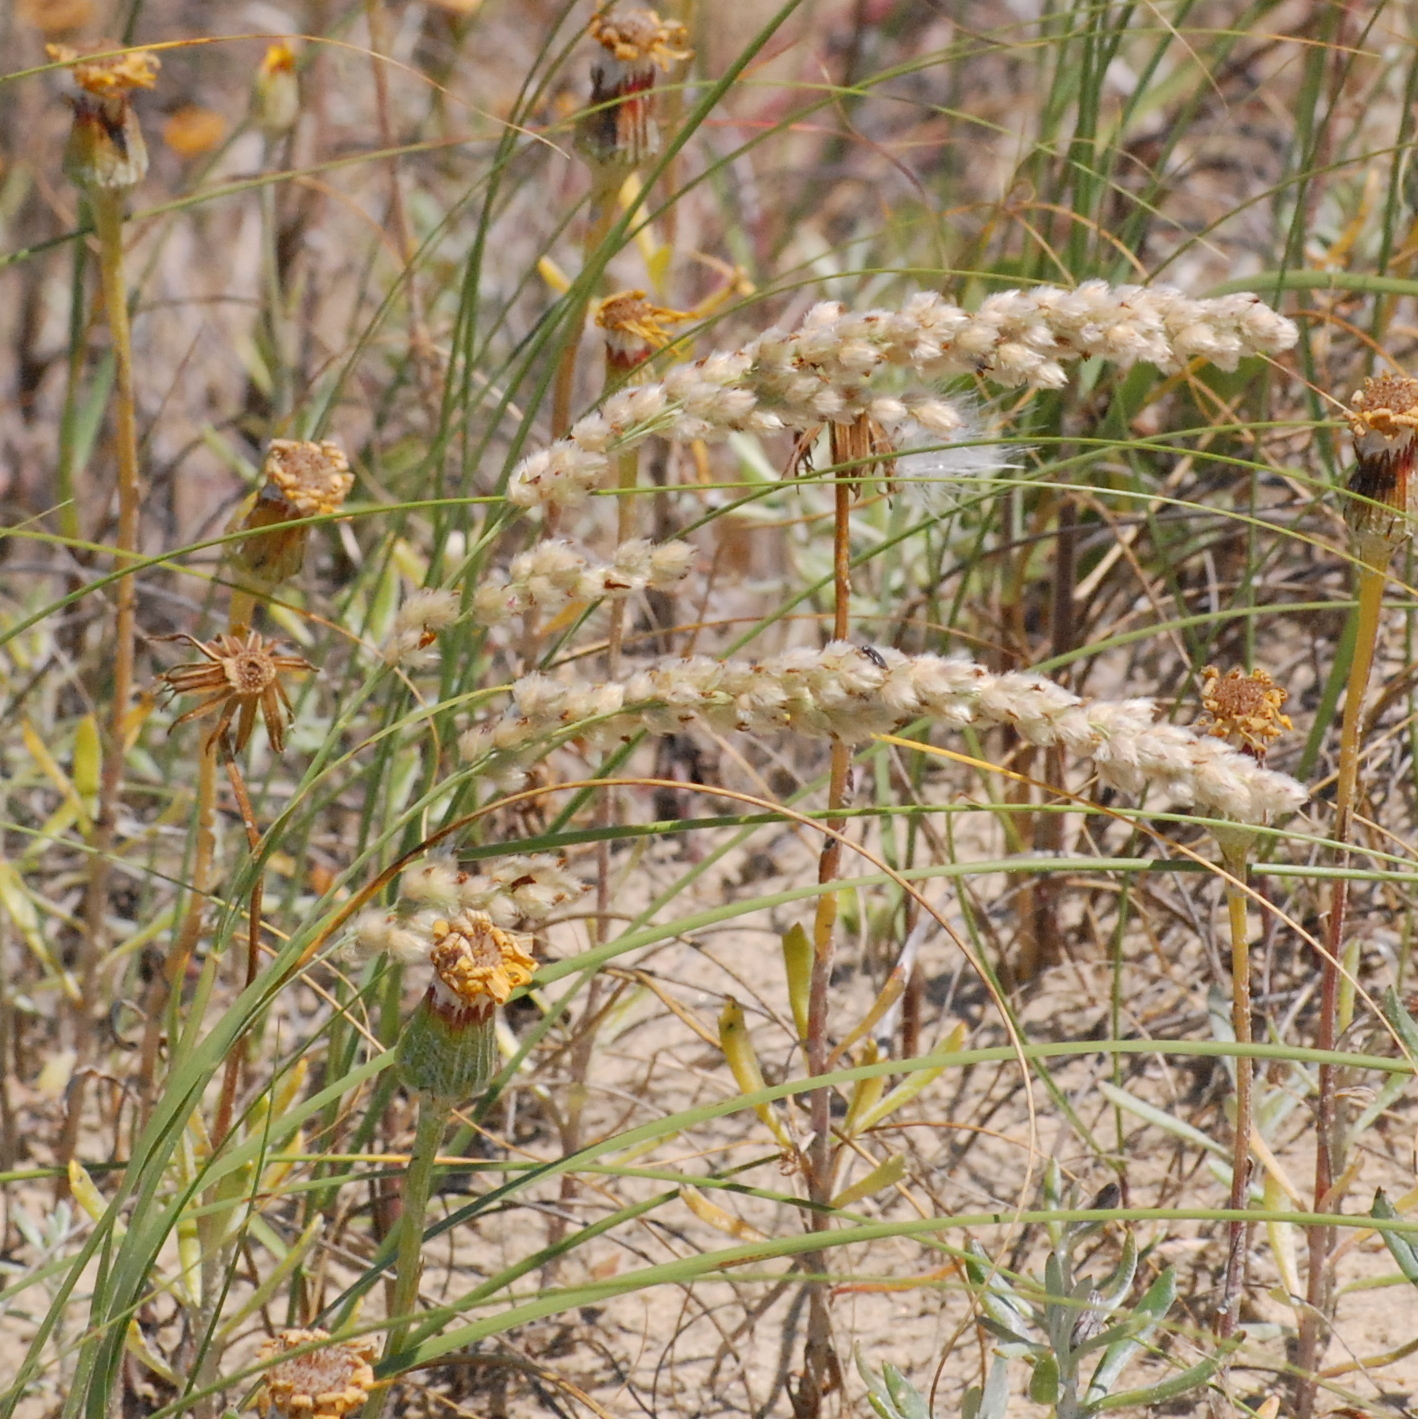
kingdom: Plantae
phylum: Tracheophyta
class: Liliopsida
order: Poales
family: Poaceae
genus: Panicum
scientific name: Panicum racemosum
